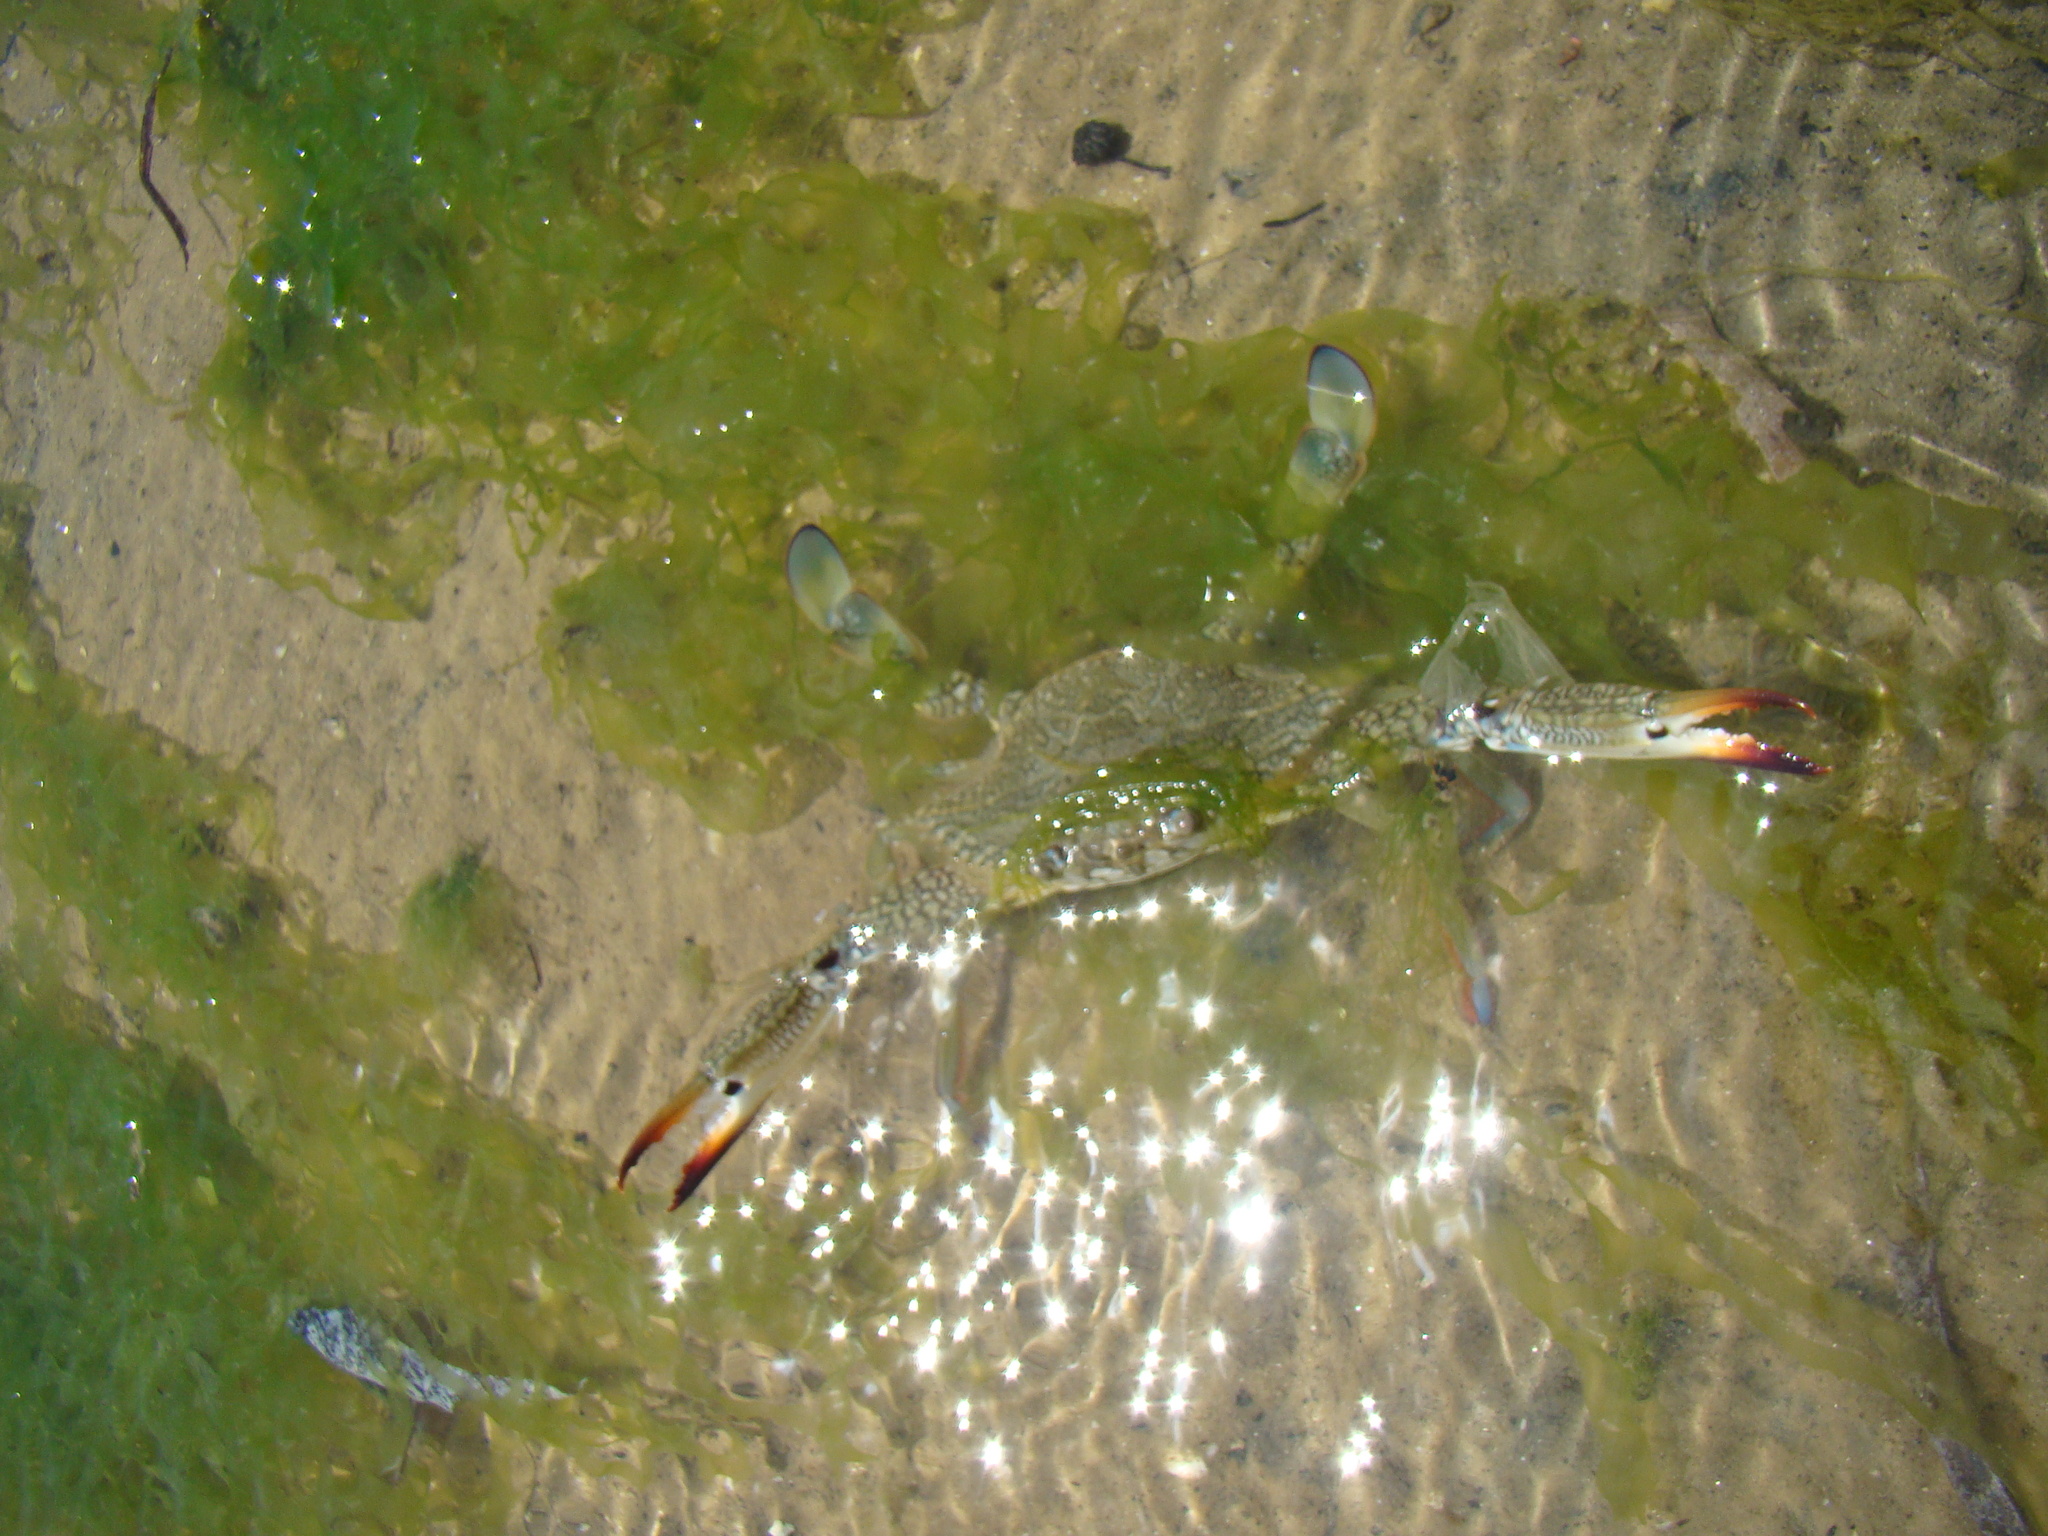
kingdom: Animalia
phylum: Arthropoda
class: Malacostraca
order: Decapoda
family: Portunidae
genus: Portunus
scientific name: Portunus segnis
